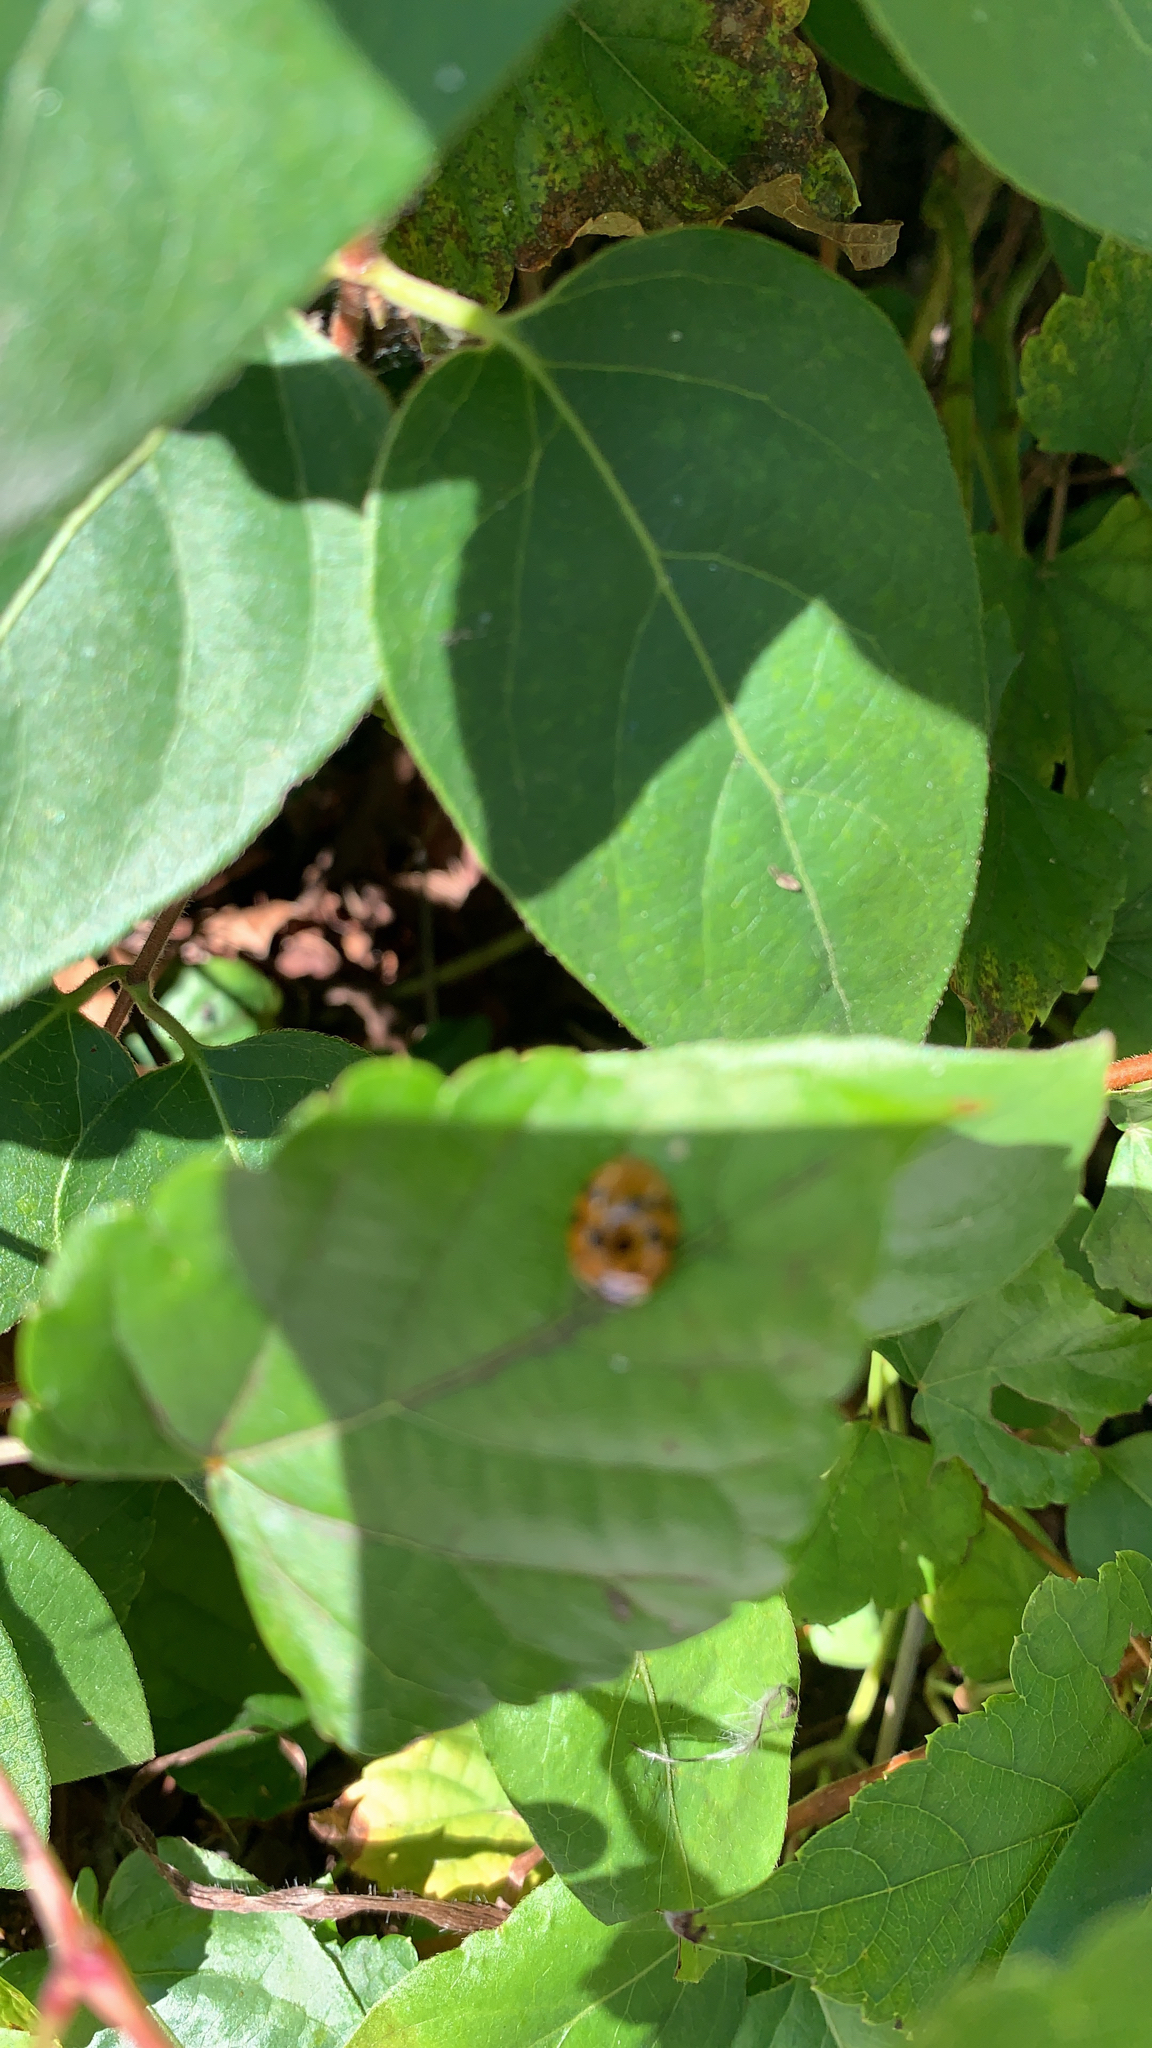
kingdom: Animalia
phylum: Arthropoda
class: Insecta
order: Coleoptera
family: Coccinellidae
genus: Harmonia
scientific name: Harmonia axyridis
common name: Harlequin ladybird
